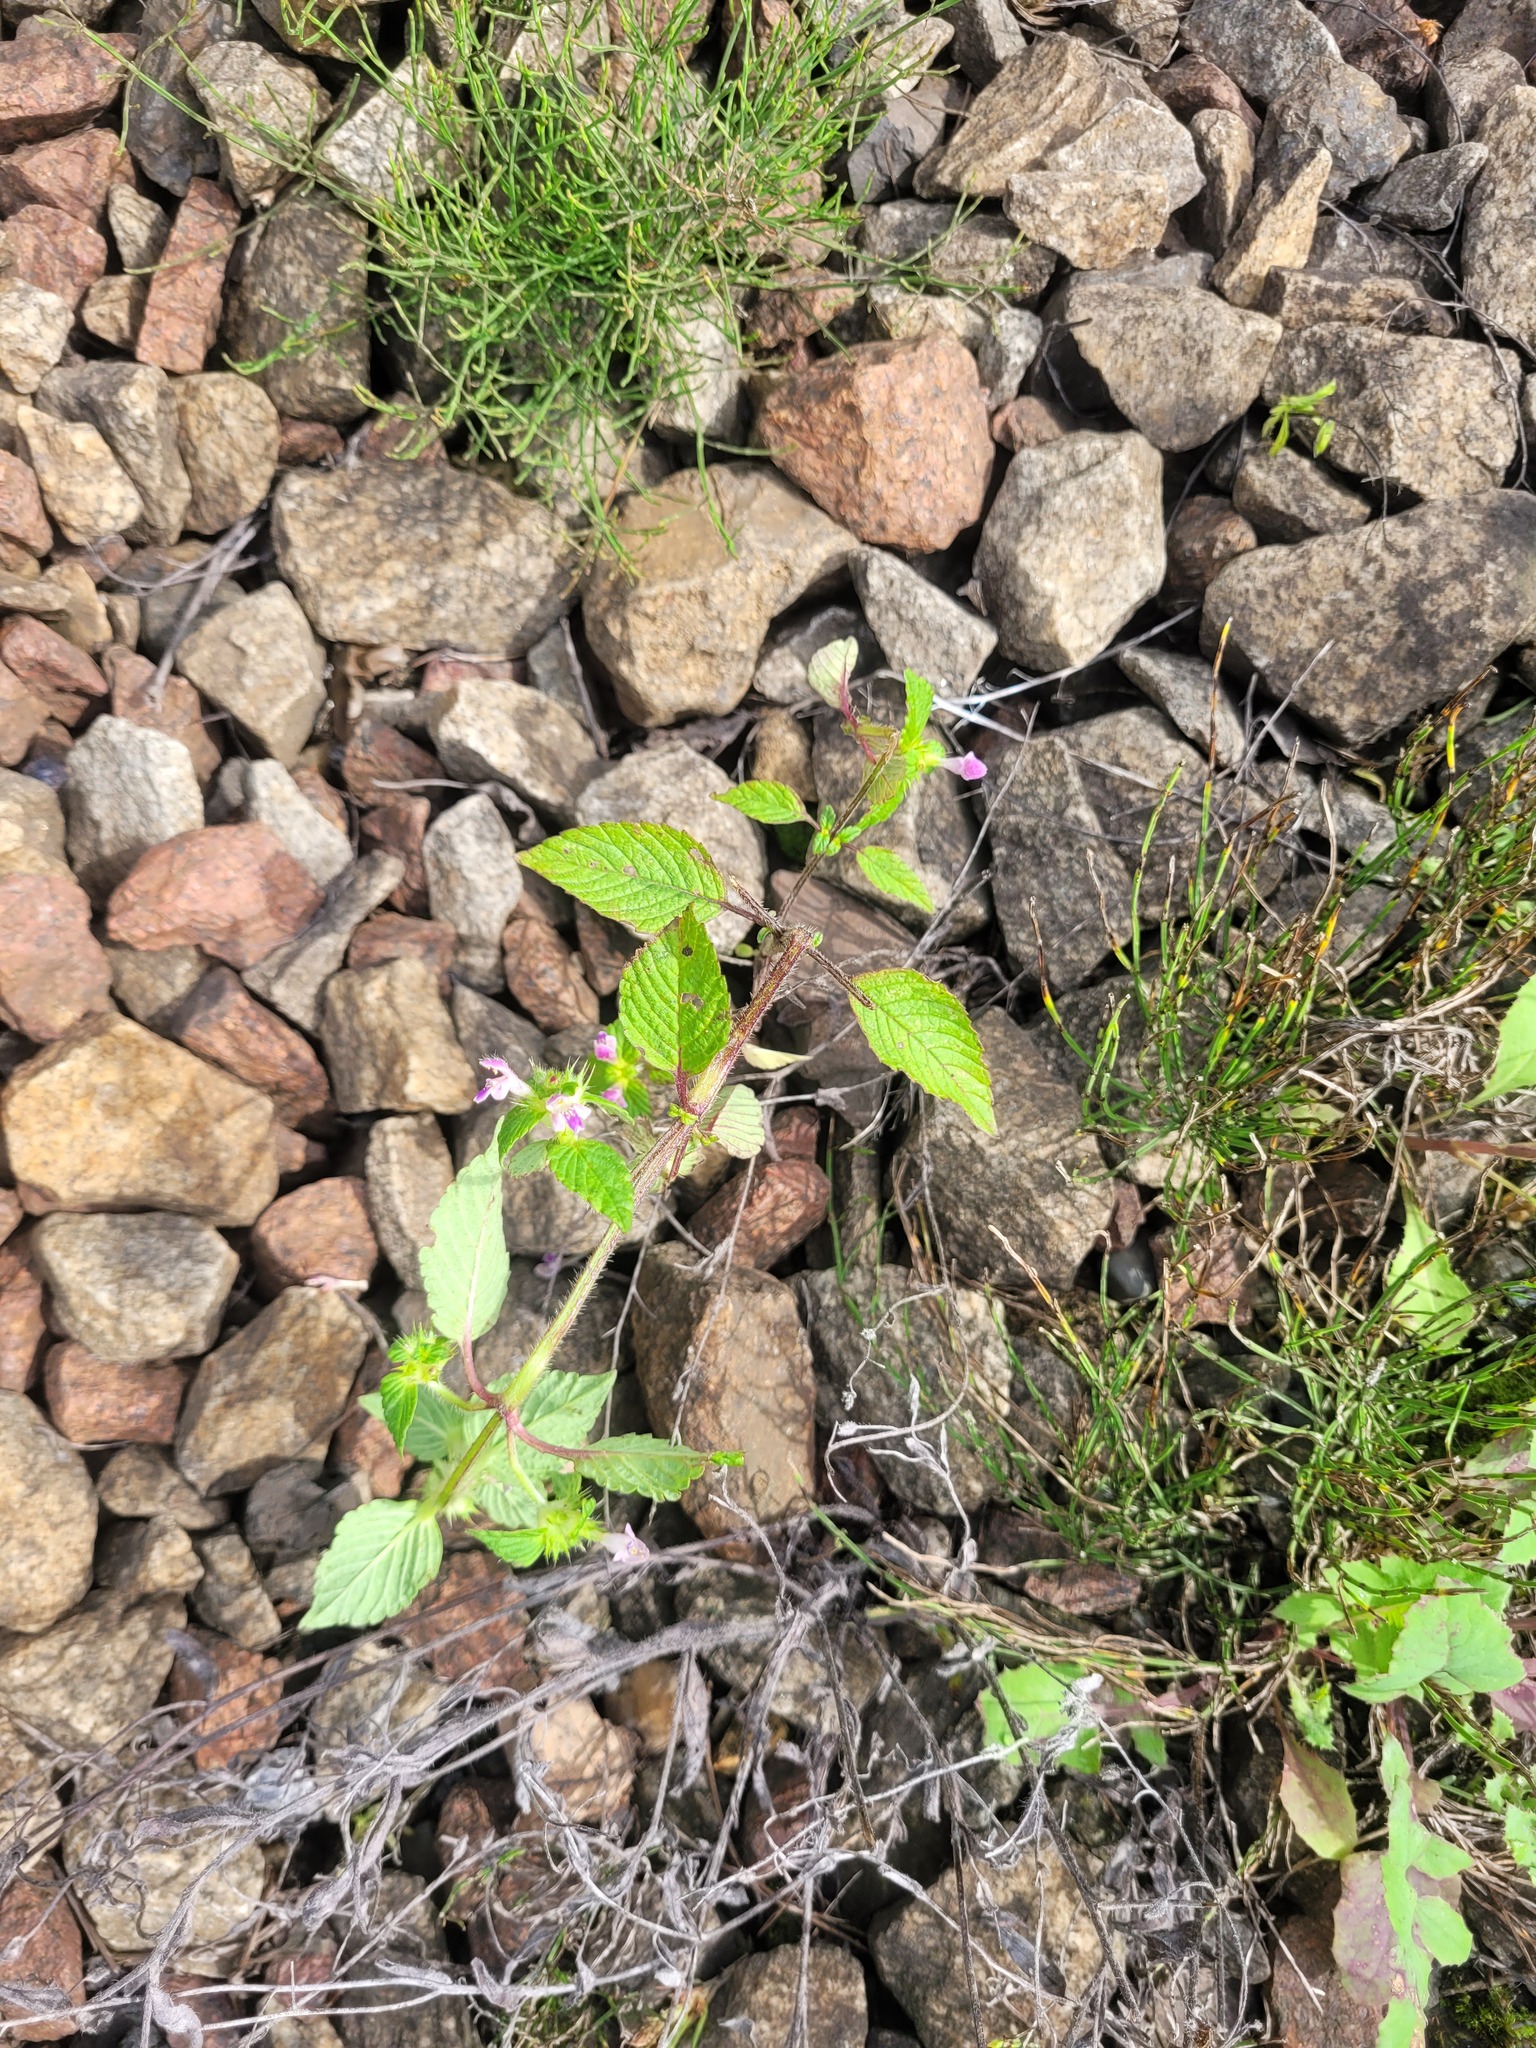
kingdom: Plantae
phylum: Tracheophyta
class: Magnoliopsida
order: Lamiales
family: Lamiaceae
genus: Galeopsis
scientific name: Galeopsis bifida
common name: Bifid hemp-nettle
